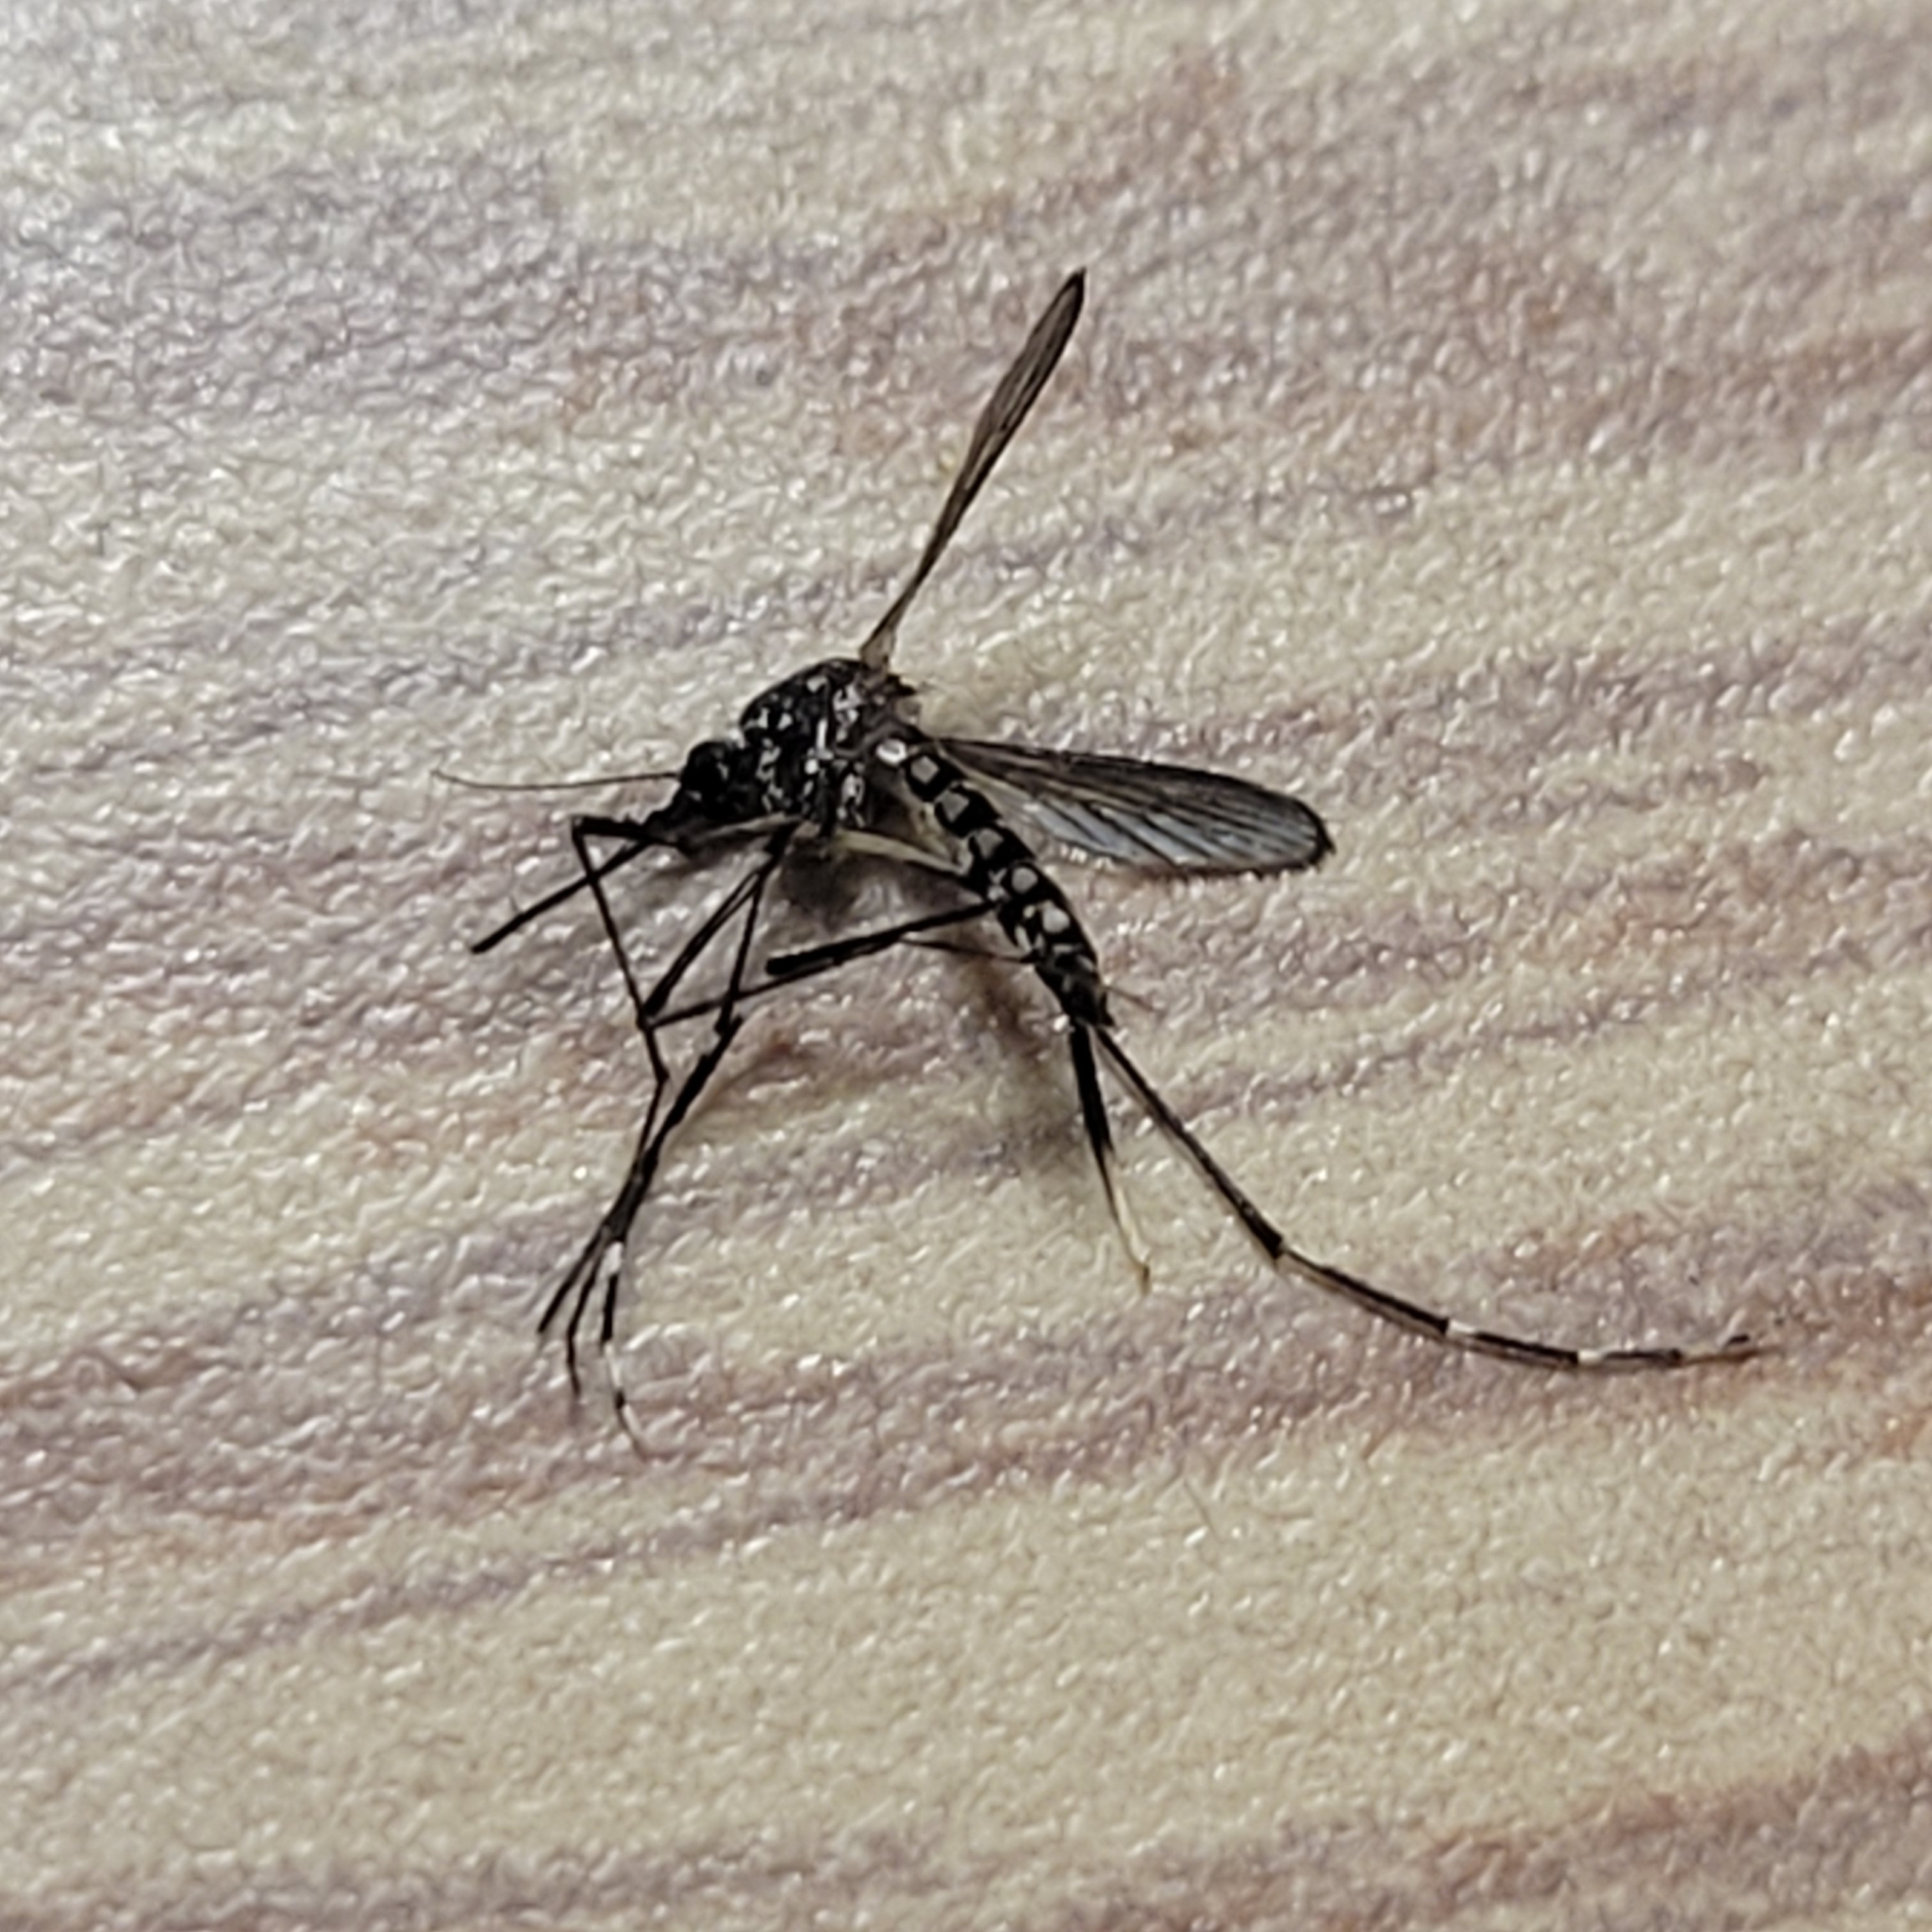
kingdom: Animalia
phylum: Arthropoda
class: Insecta
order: Diptera
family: Culicidae
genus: Aedes
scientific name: Aedes albopictus
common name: Tiger mosquito
